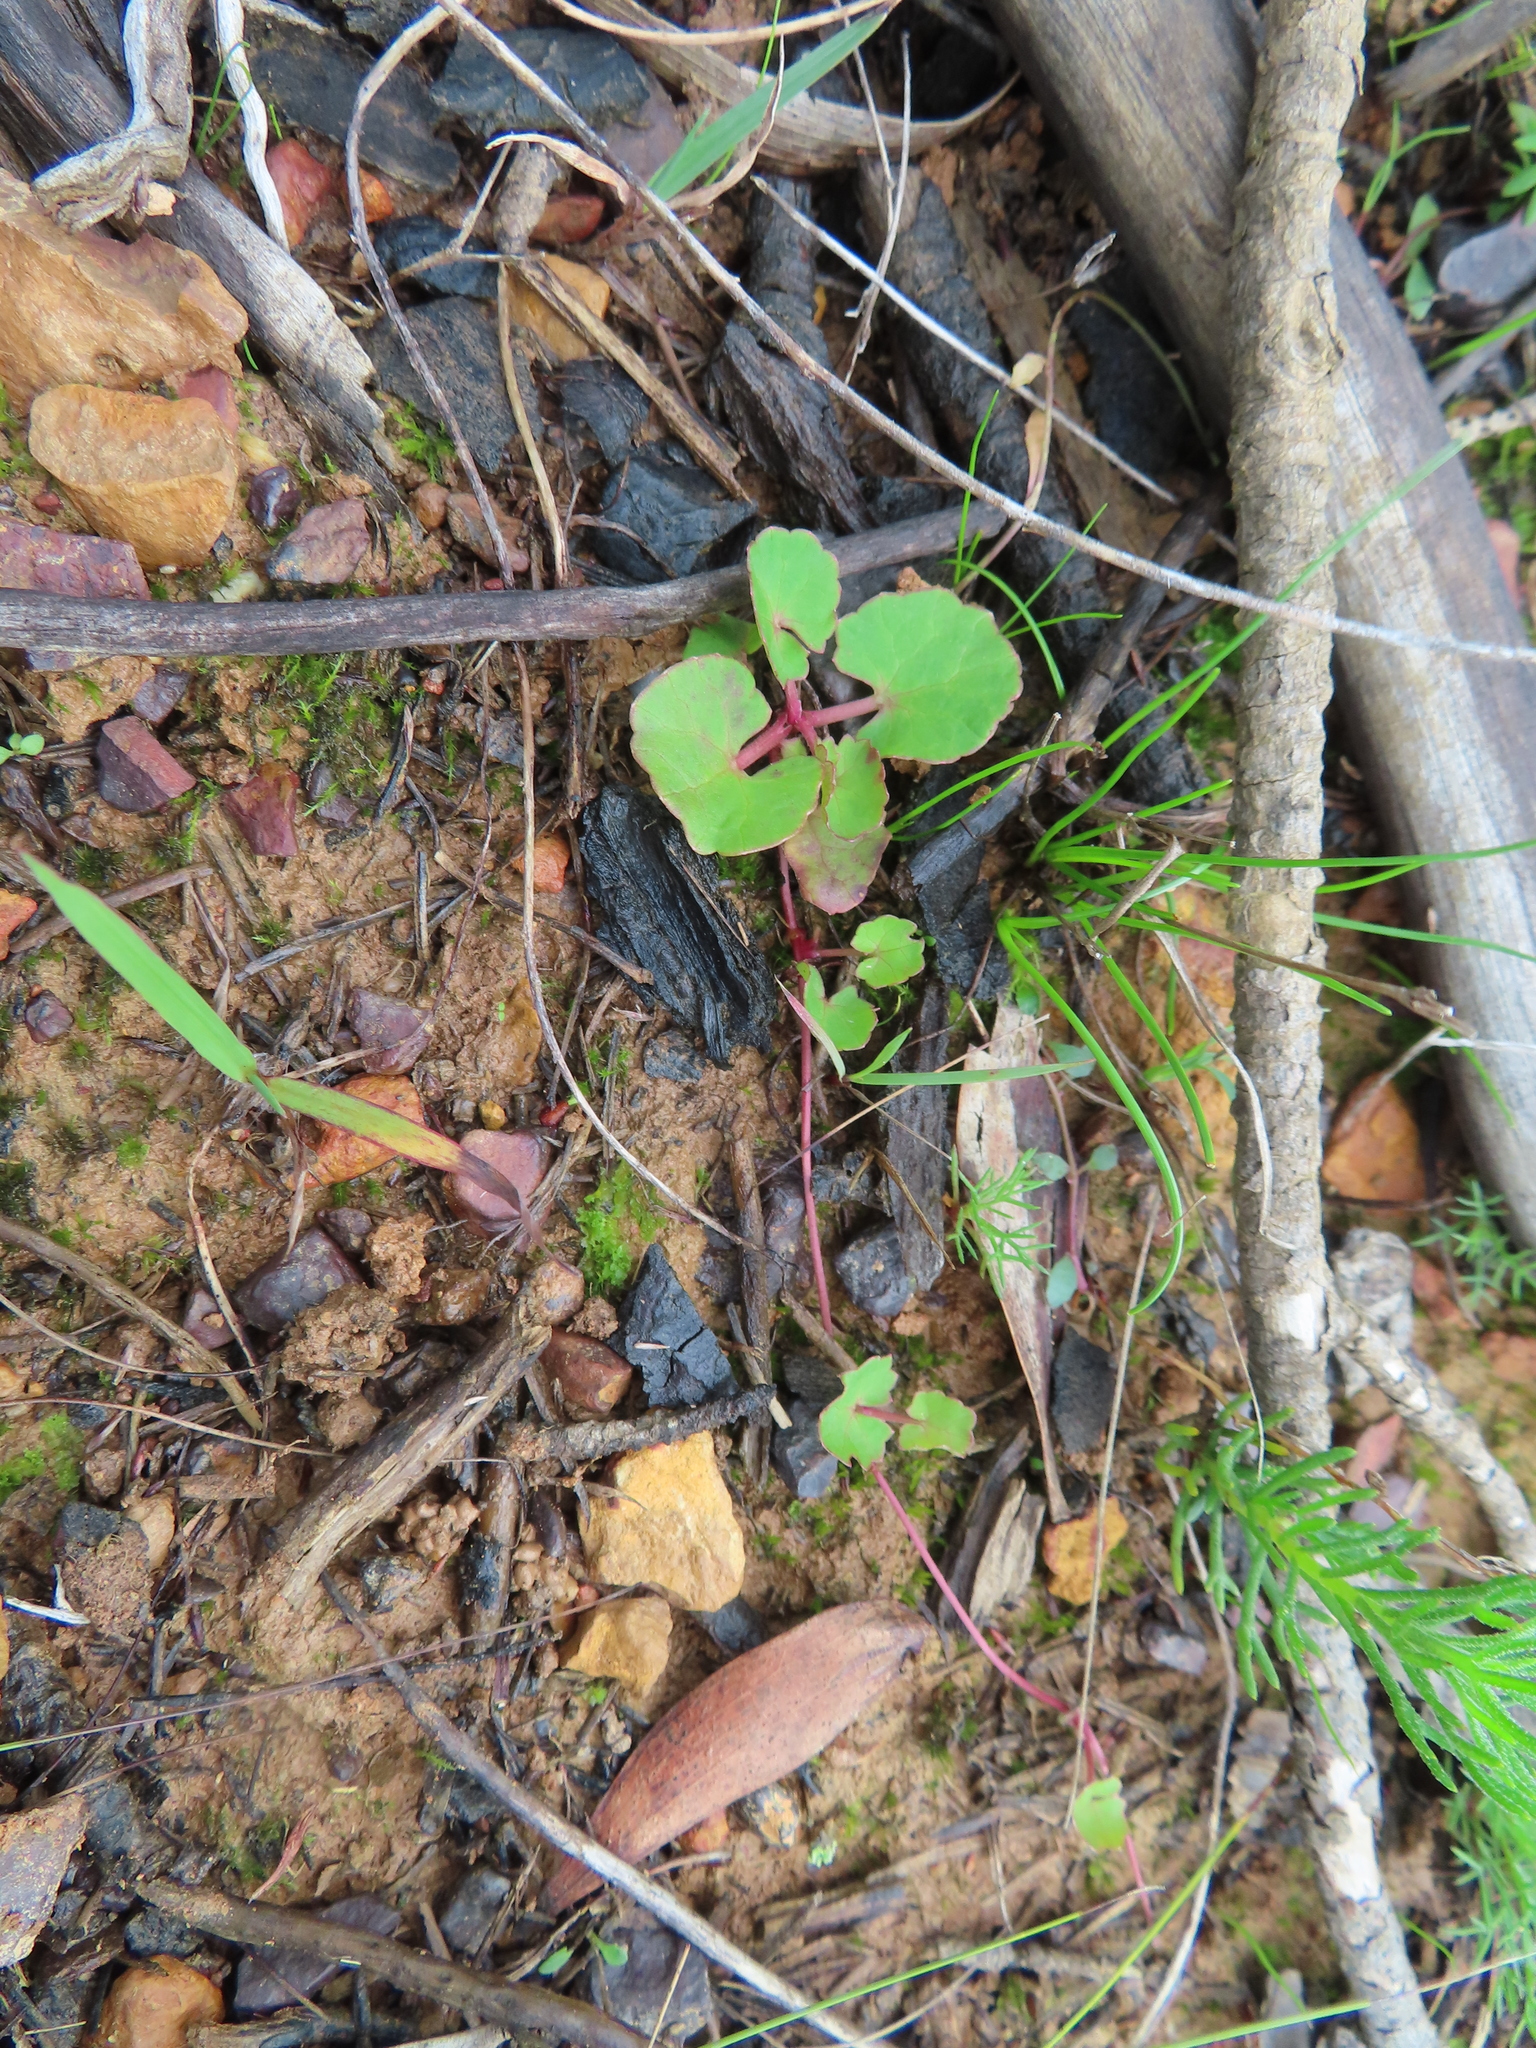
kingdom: Plantae
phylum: Tracheophyta
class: Magnoliopsida
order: Apiales
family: Apiaceae
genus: Centella
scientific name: Centella asiatica
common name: Spadeleaf
